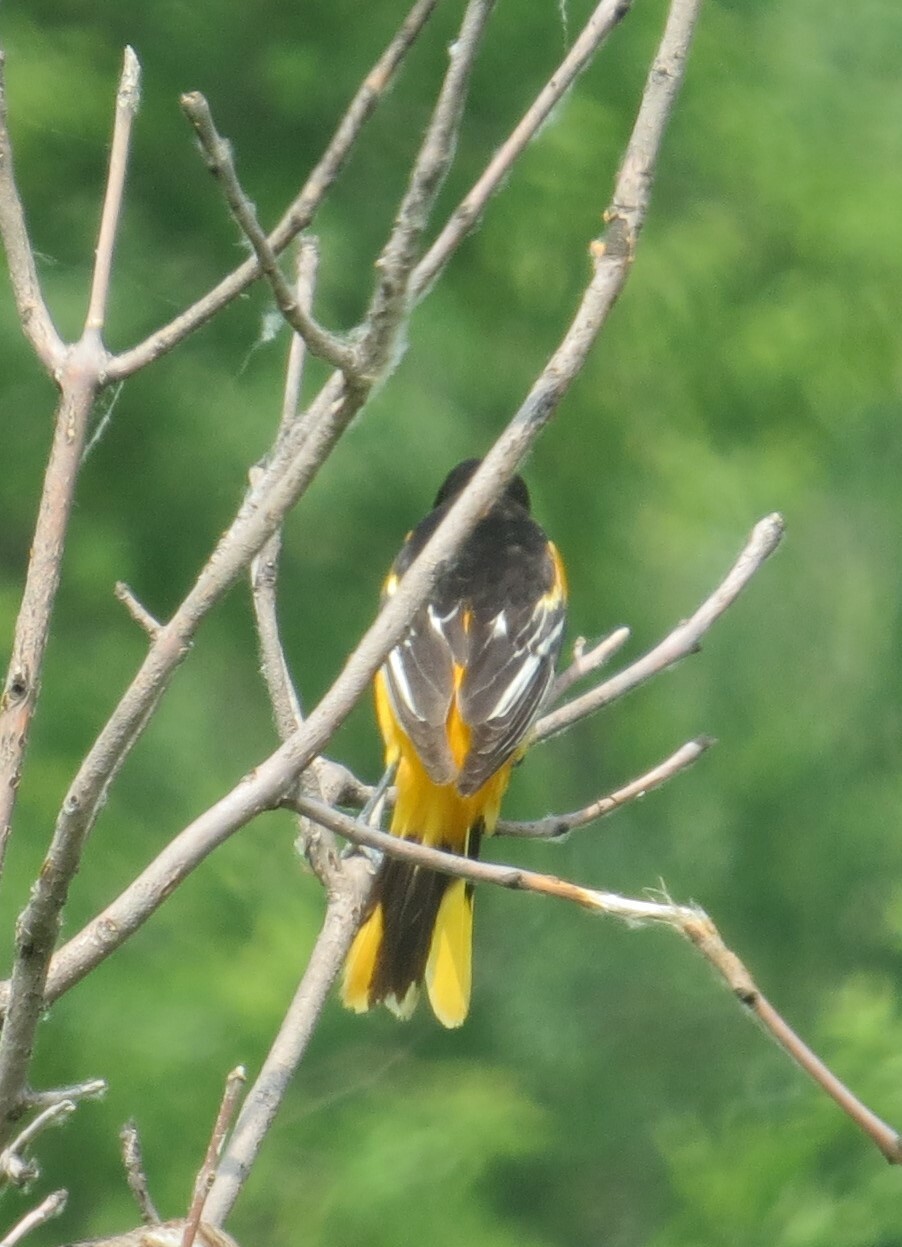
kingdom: Animalia
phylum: Chordata
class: Aves
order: Passeriformes
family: Icteridae
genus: Icterus
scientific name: Icterus galbula
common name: Baltimore oriole
